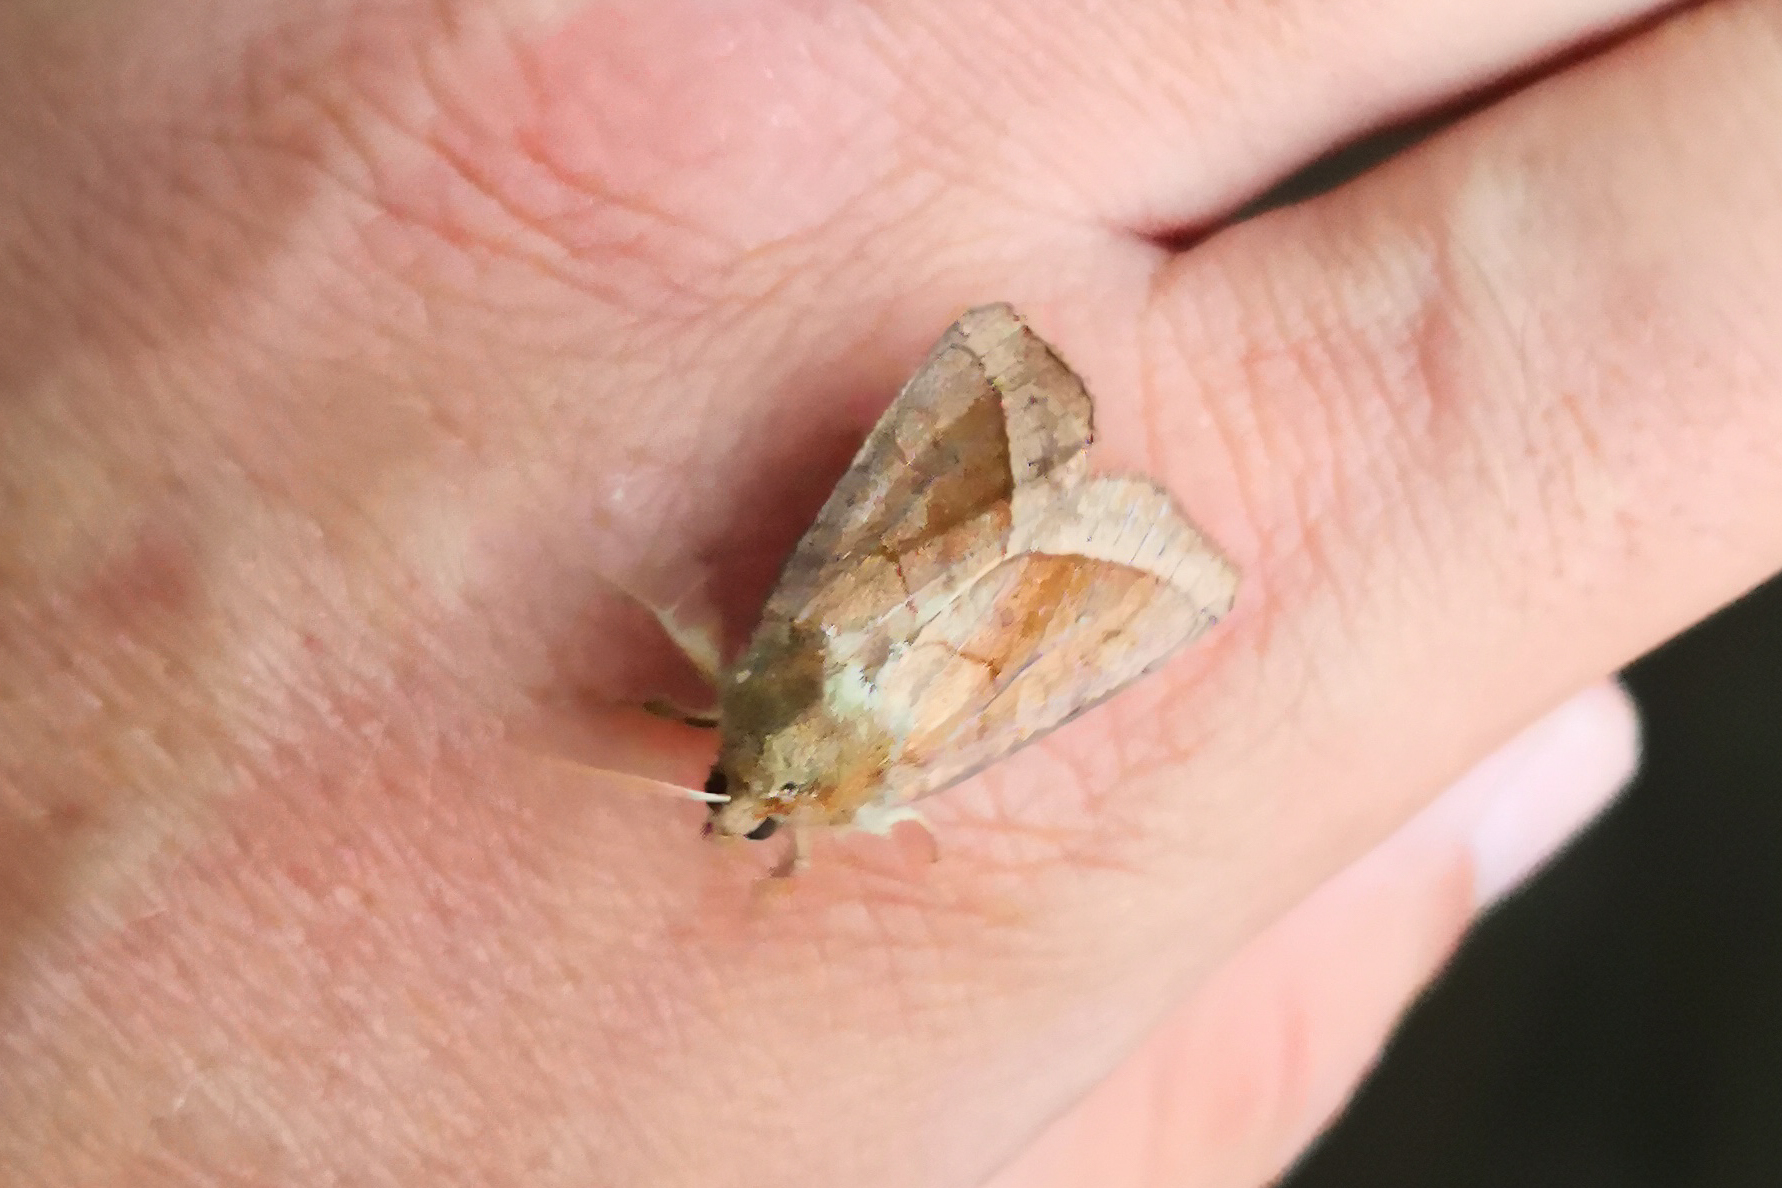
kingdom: Animalia
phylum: Arthropoda
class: Insecta
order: Lepidoptera
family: Noctuidae
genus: Hydraecia
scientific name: Hydraecia micacea
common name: Rosy rustic
